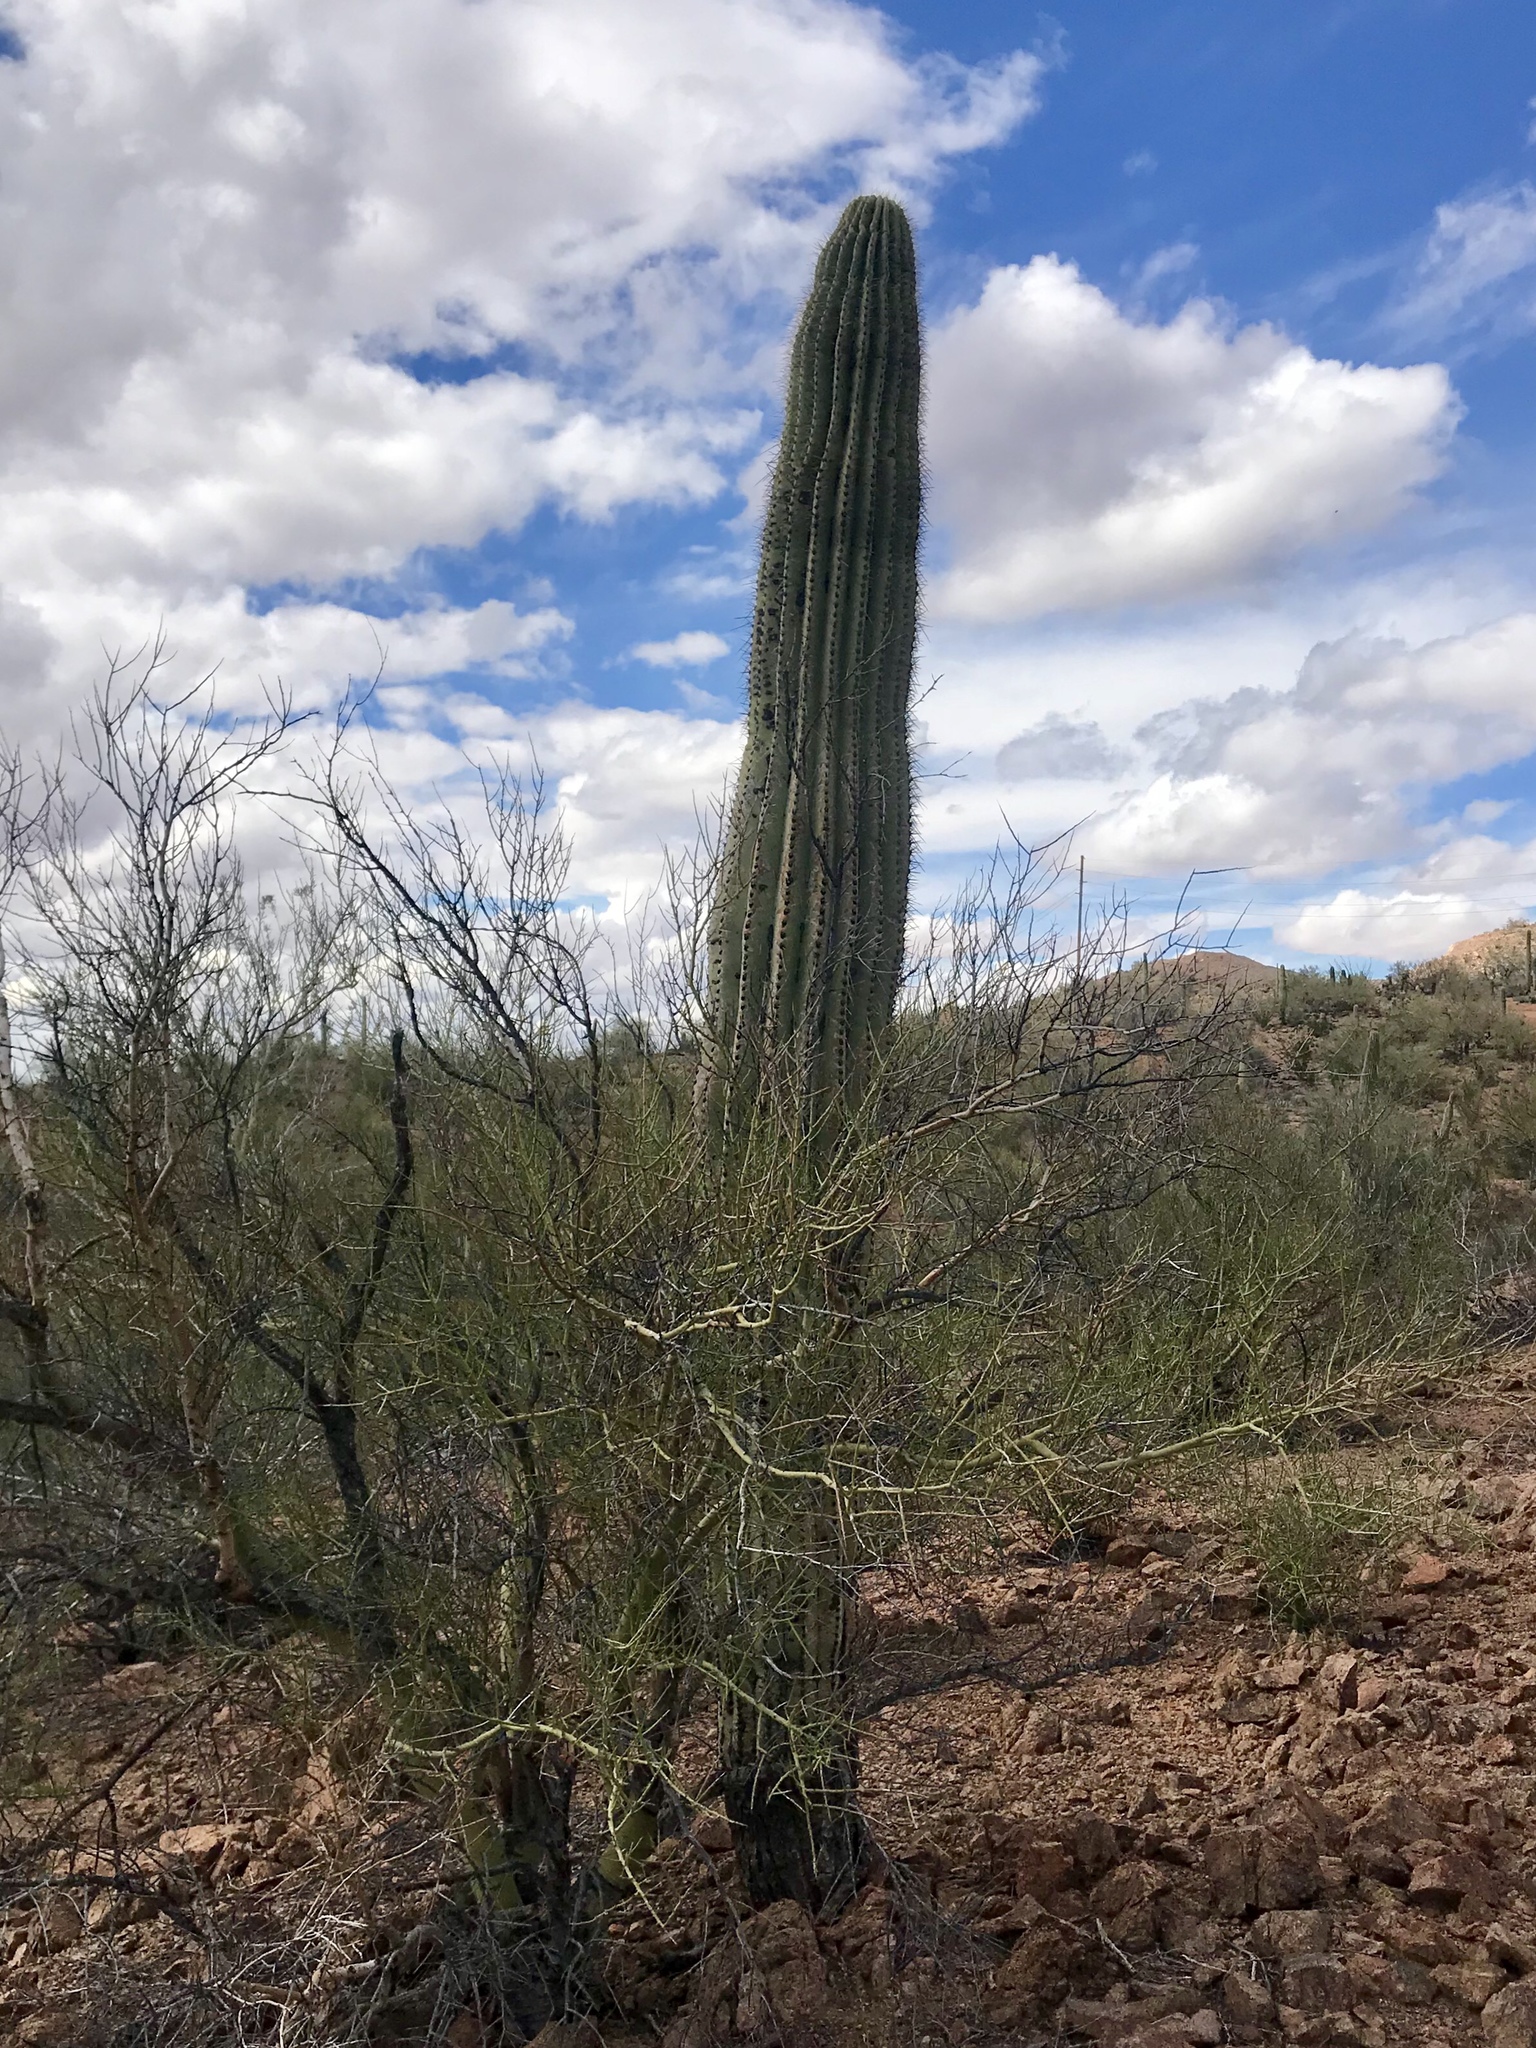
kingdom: Plantae
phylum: Tracheophyta
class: Magnoliopsida
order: Caryophyllales
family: Cactaceae
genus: Carnegiea
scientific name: Carnegiea gigantea
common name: Saguaro
